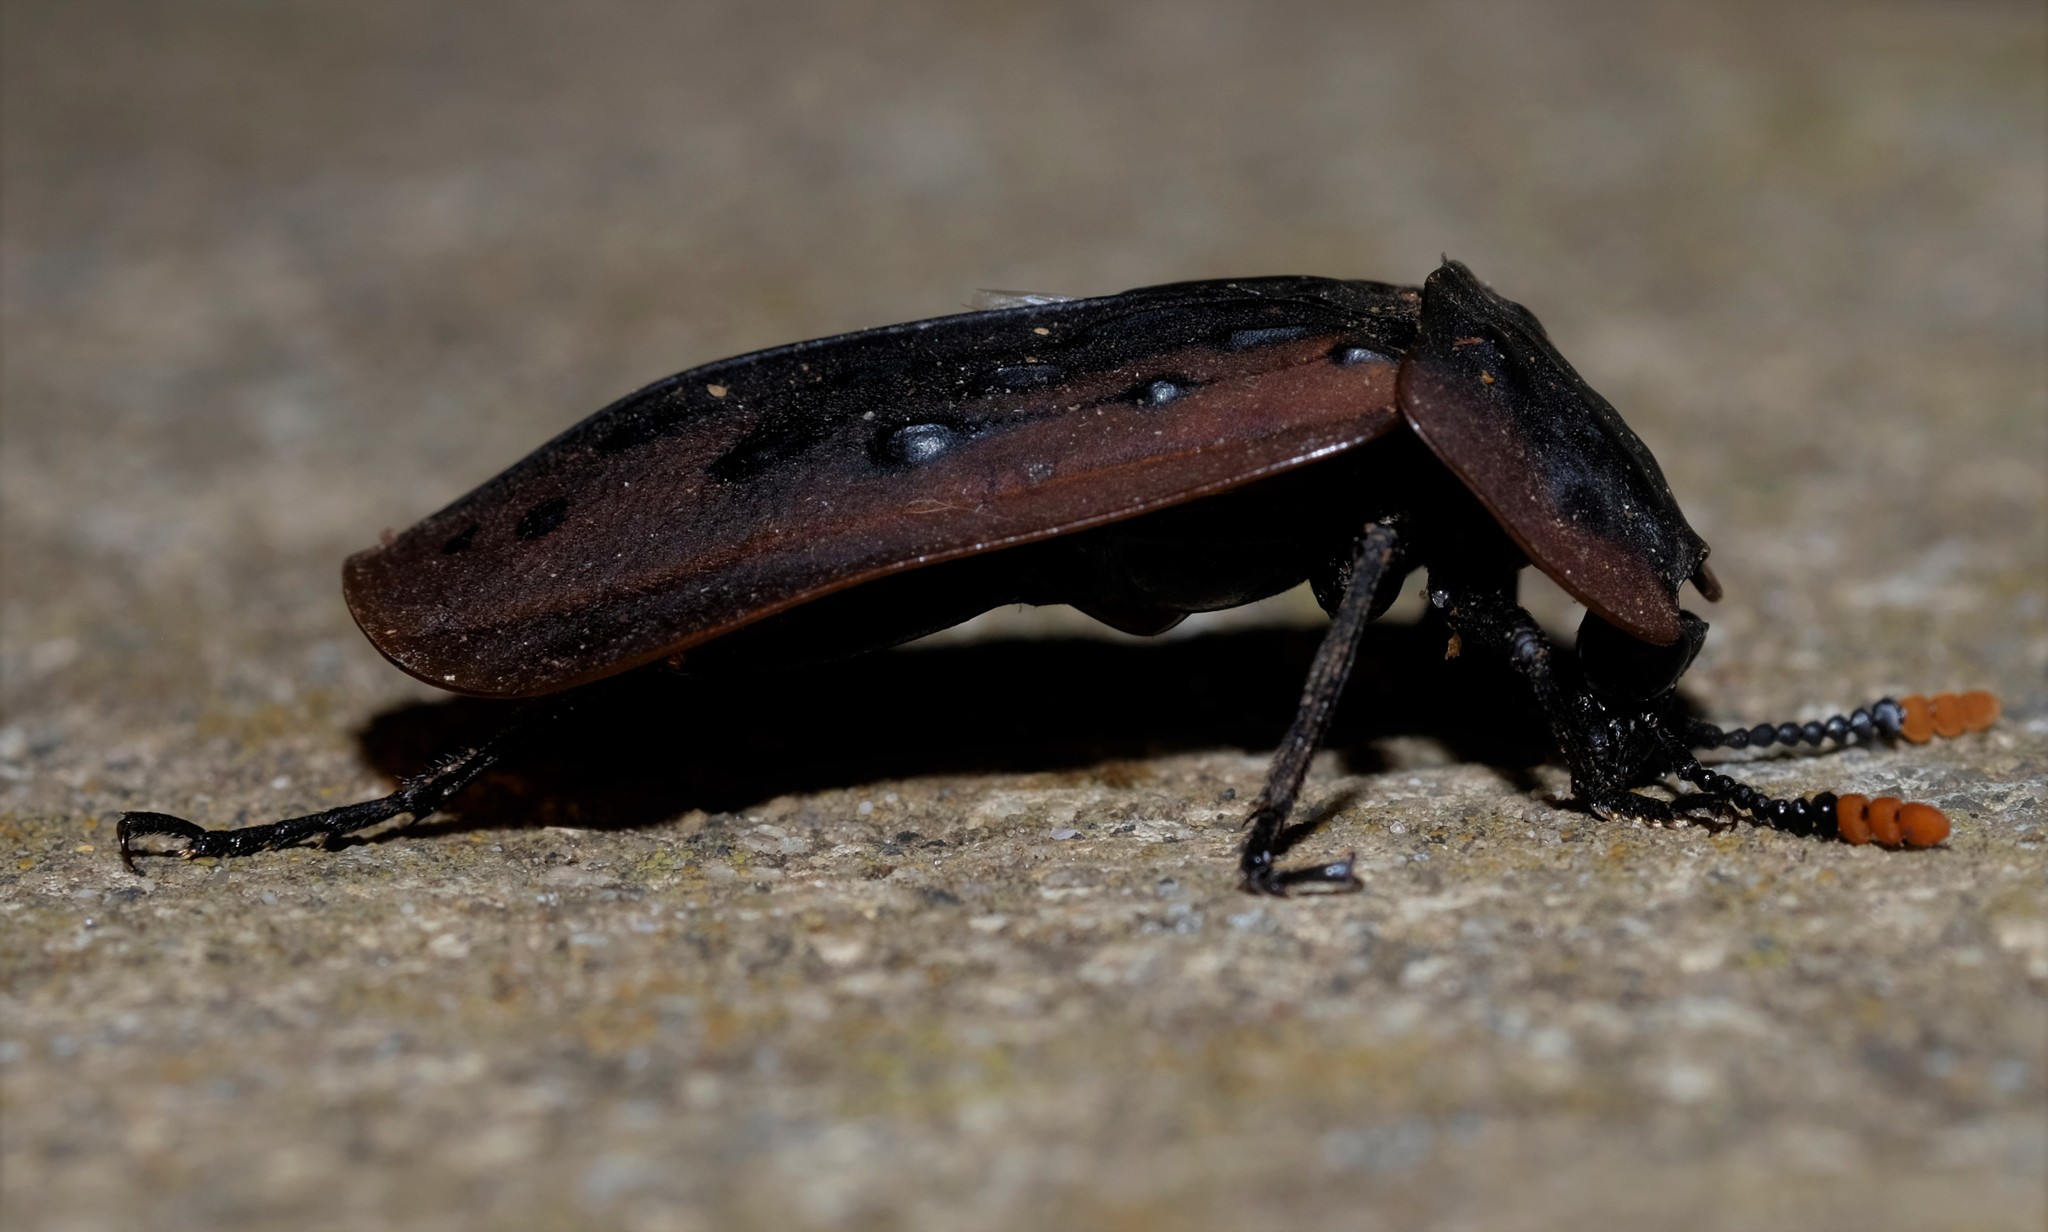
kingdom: Animalia
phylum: Arthropoda
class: Insecta
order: Coleoptera
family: Staphylinidae
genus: Ptomaphila
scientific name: Ptomaphila lacrymosa
